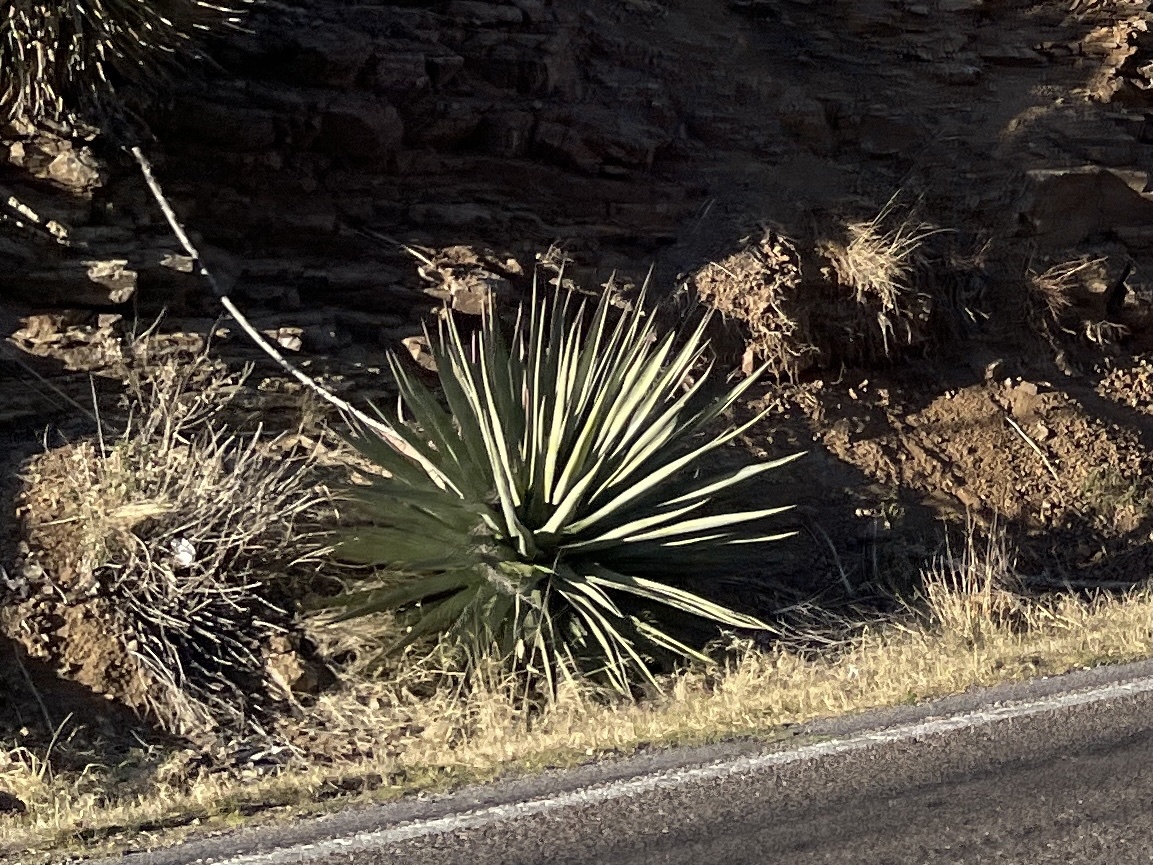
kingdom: Plantae
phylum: Tracheophyta
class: Liliopsida
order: Asparagales
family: Asparagaceae
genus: Agave
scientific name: Agave palmeri
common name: Palmer agave
